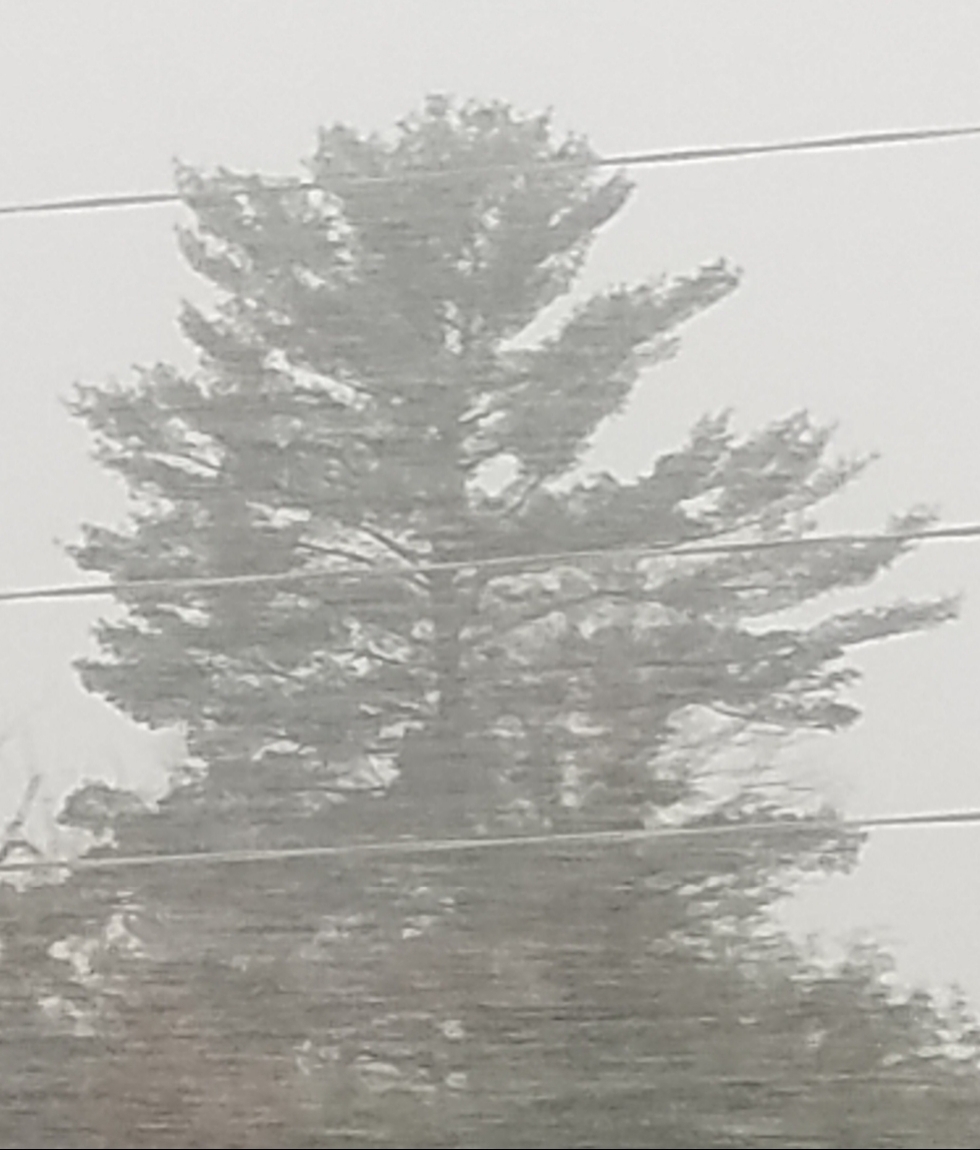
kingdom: Plantae
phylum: Tracheophyta
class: Pinopsida
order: Pinales
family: Pinaceae
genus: Pinus
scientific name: Pinus strobus
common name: Weymouth pine
